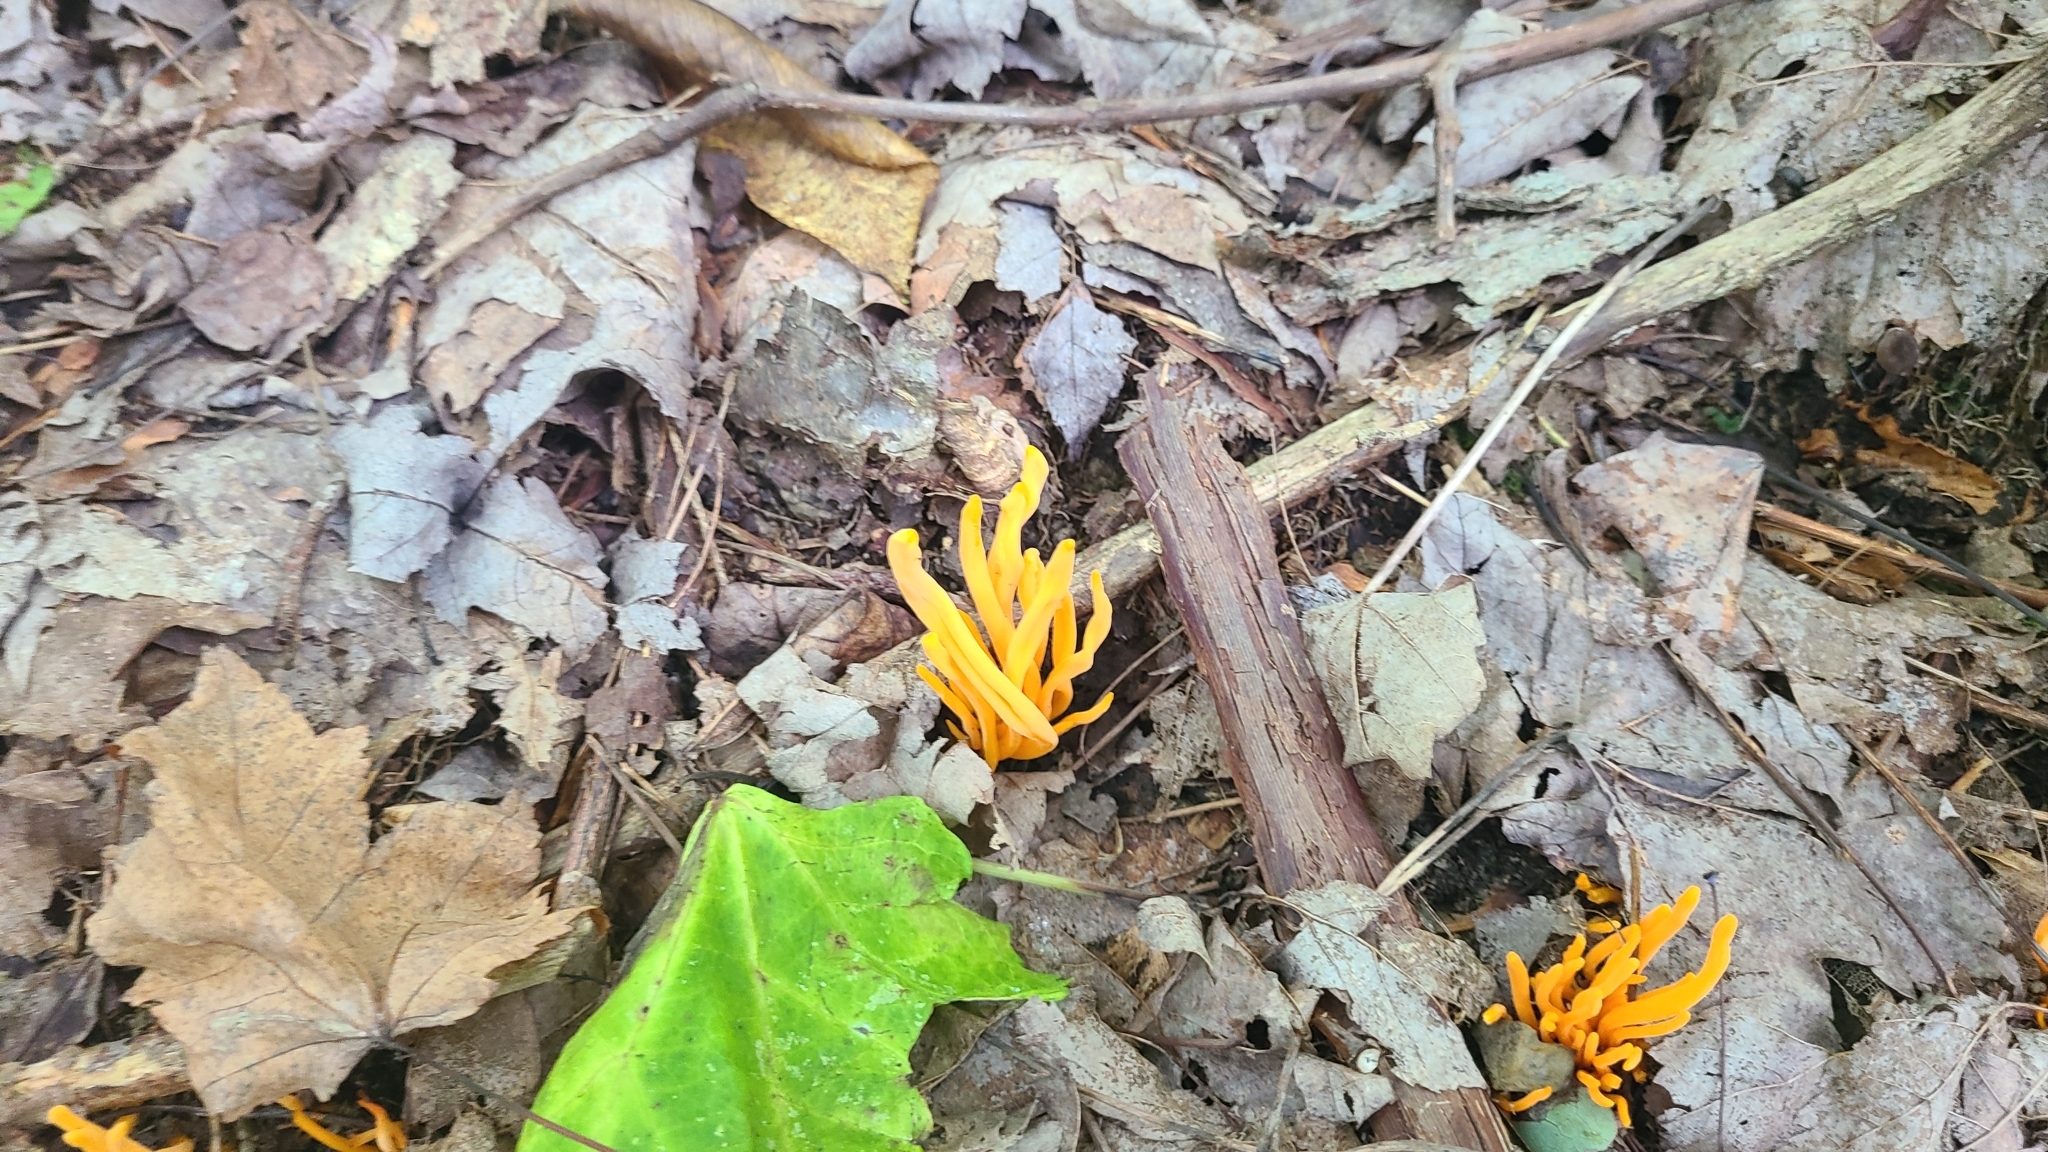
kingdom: Fungi
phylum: Basidiomycota
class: Agaricomycetes
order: Agaricales
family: Clavariaceae
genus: Clavulinopsis
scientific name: Clavulinopsis aurantiocinnabarina
